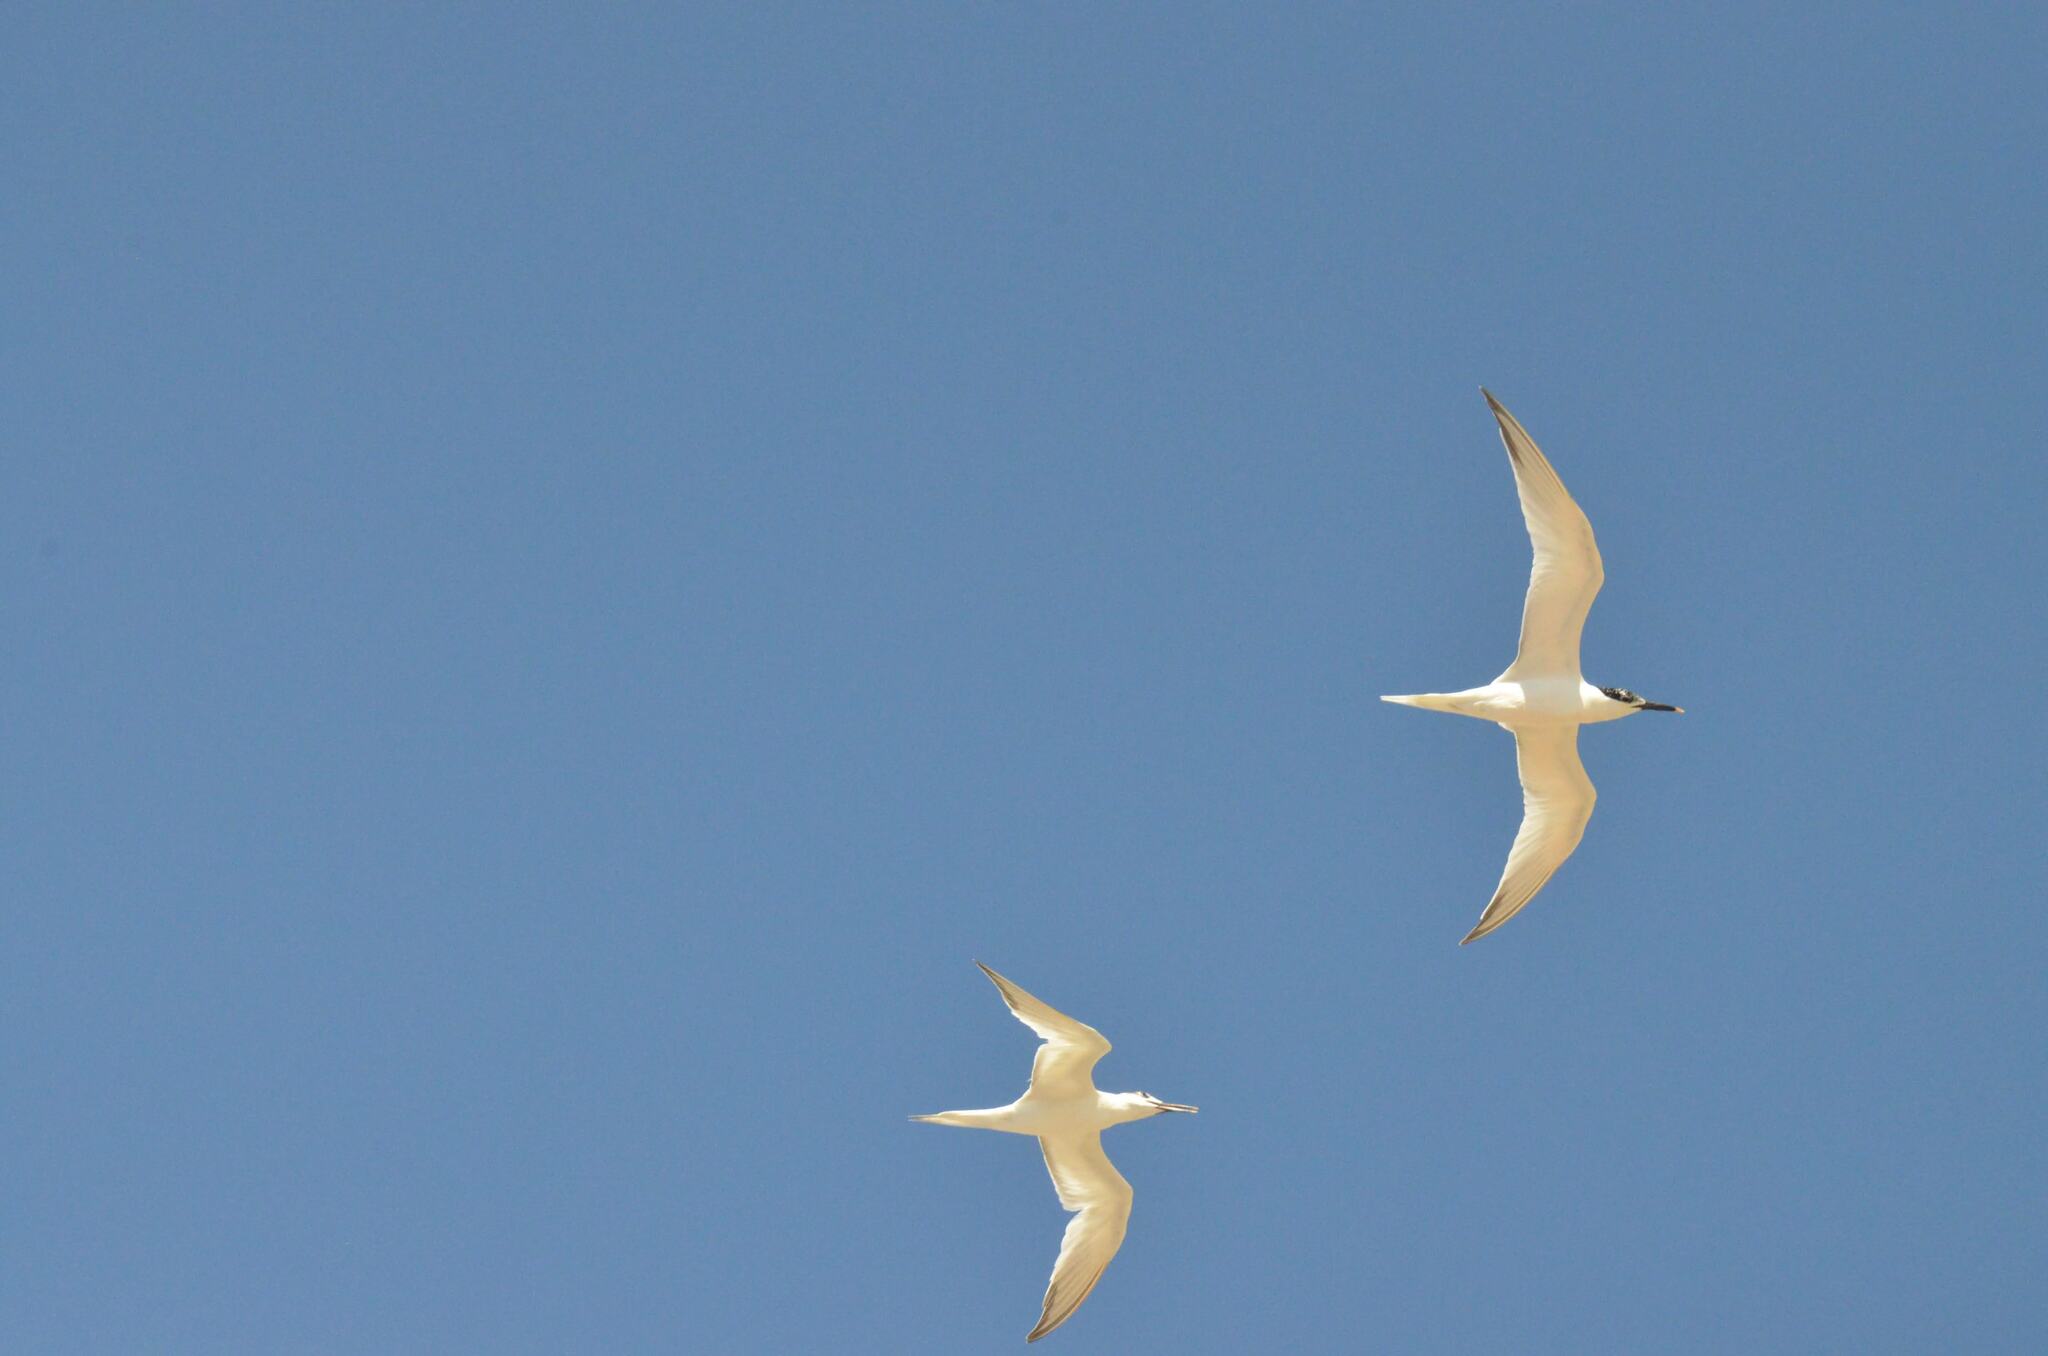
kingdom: Animalia
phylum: Chordata
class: Aves
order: Charadriiformes
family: Laridae
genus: Thalasseus
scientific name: Thalasseus sandvicensis
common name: Sandwich tern
